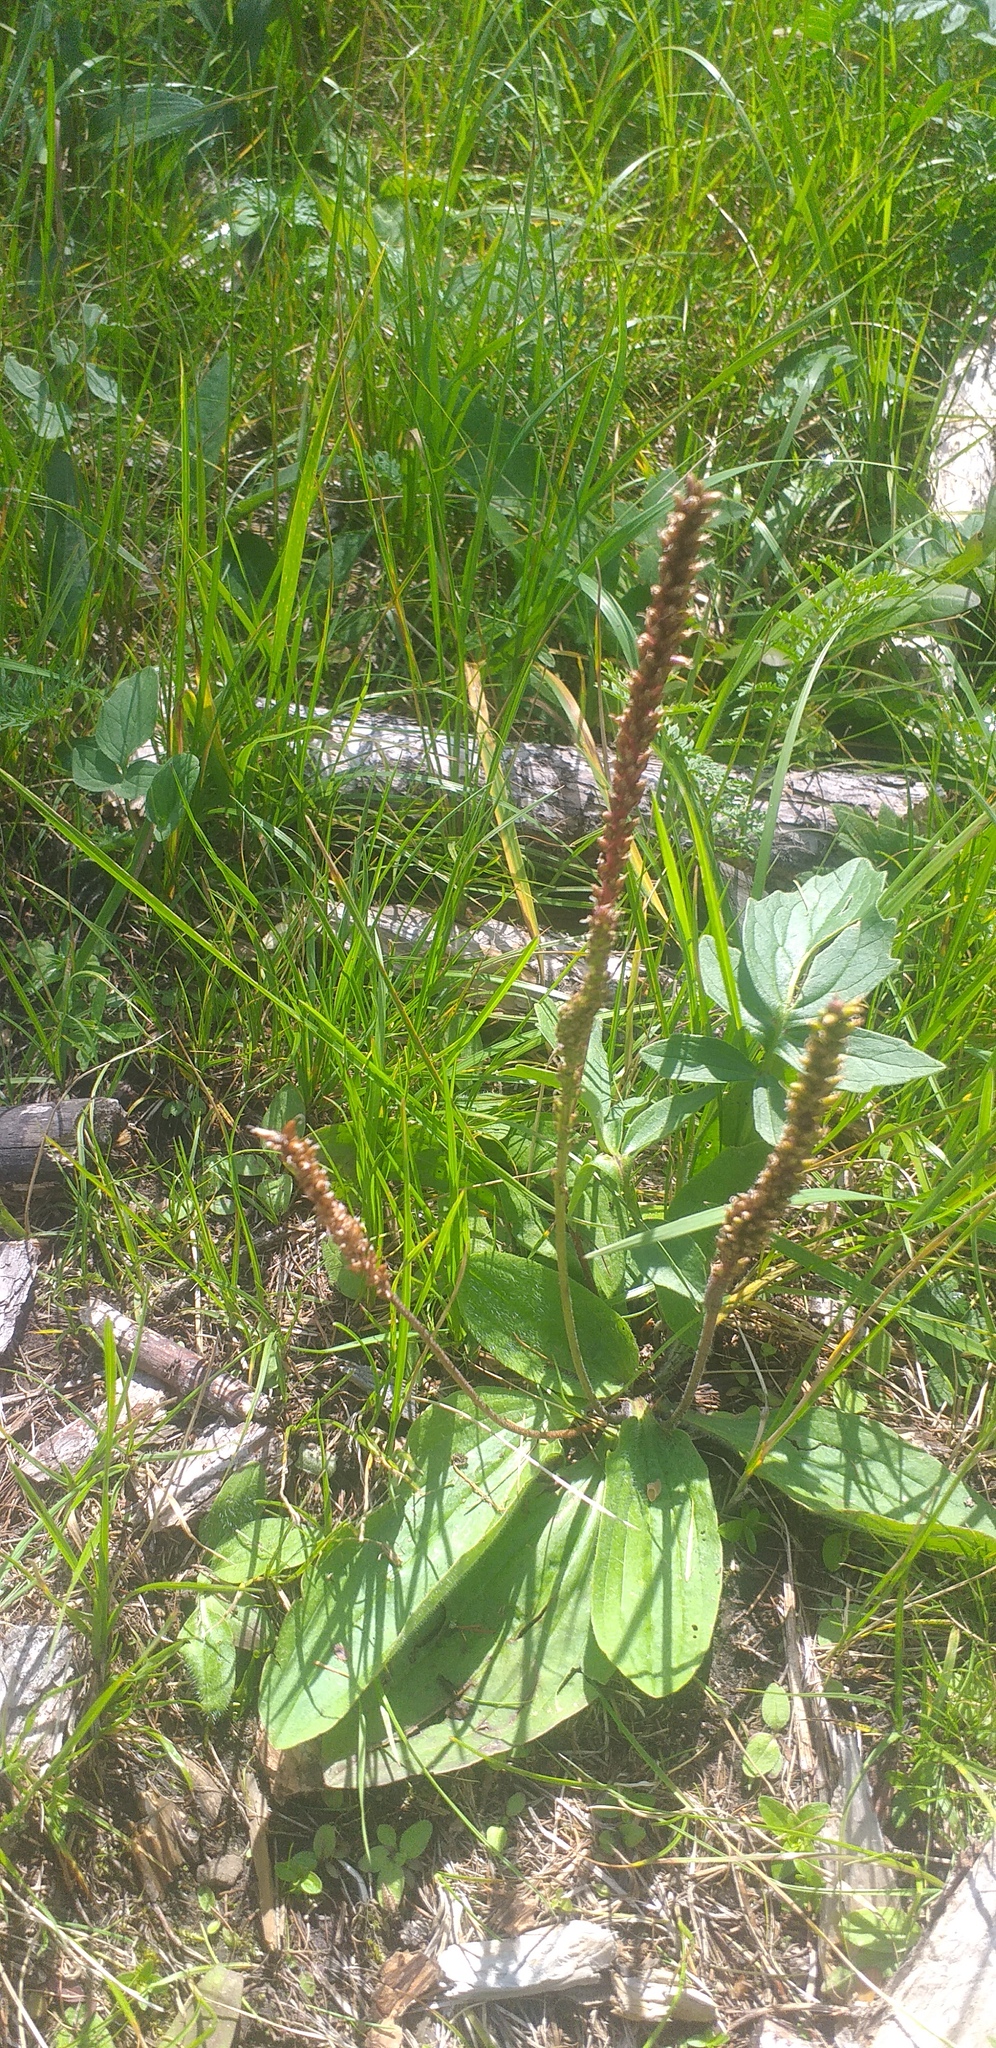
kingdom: Plantae
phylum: Tracheophyta
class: Magnoliopsida
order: Lamiales
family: Plantaginaceae
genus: Plantago
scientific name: Plantago depressa
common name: Depressed plantain
